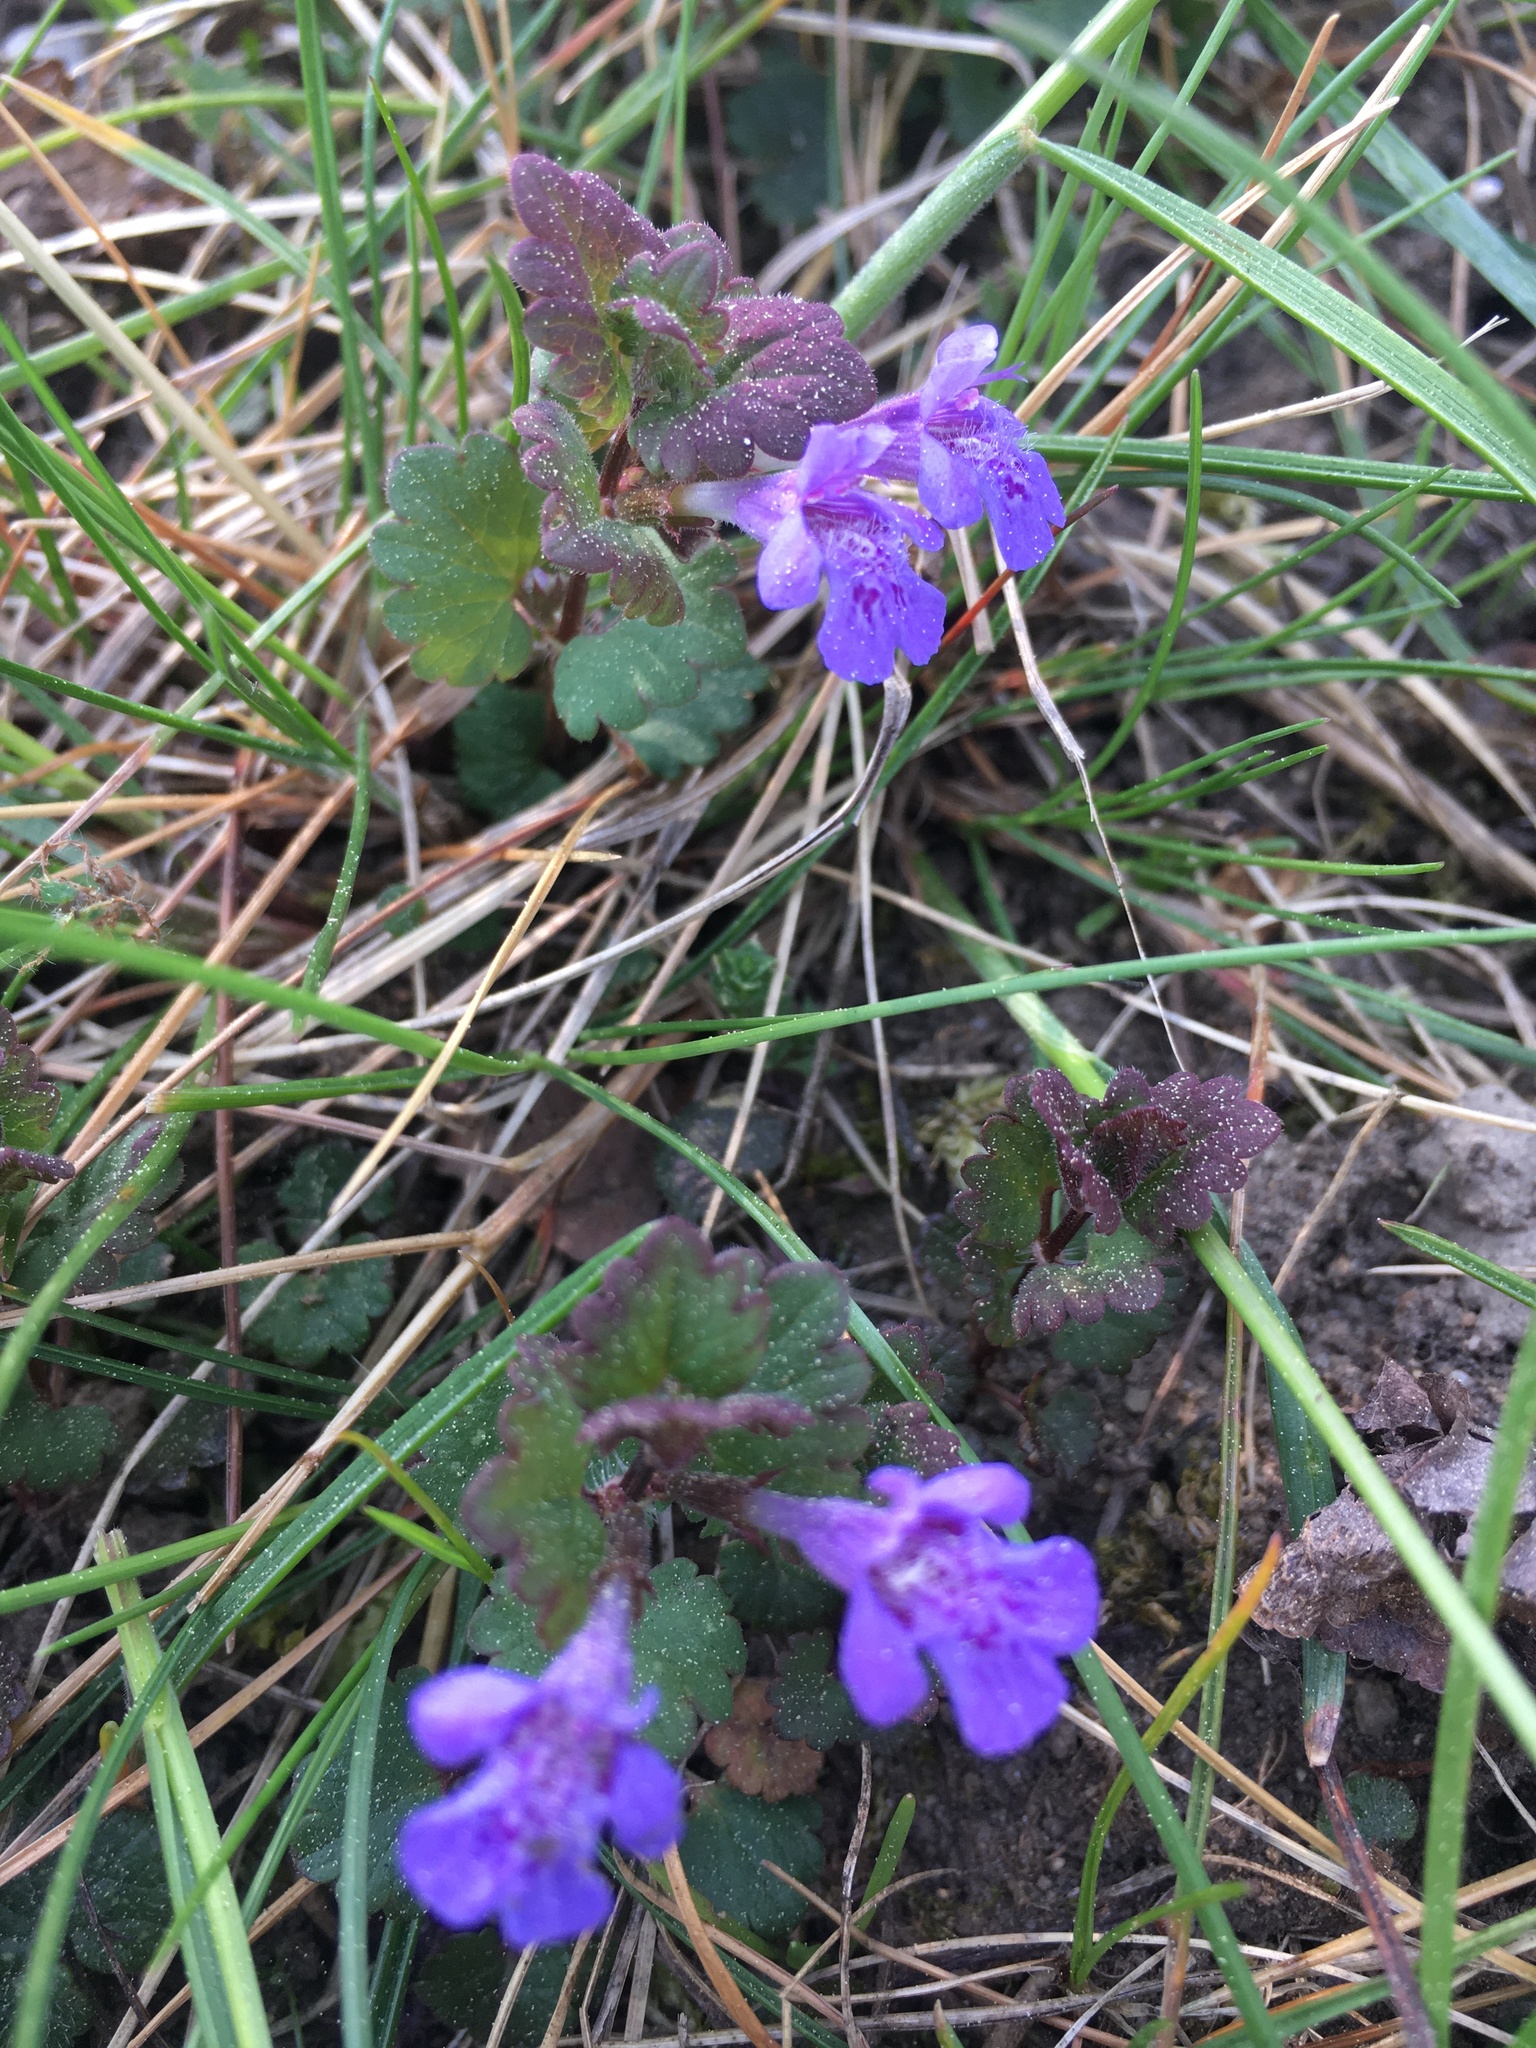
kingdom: Plantae
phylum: Tracheophyta
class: Magnoliopsida
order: Lamiales
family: Lamiaceae
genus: Glechoma
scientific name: Glechoma hederacea
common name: Ground ivy
